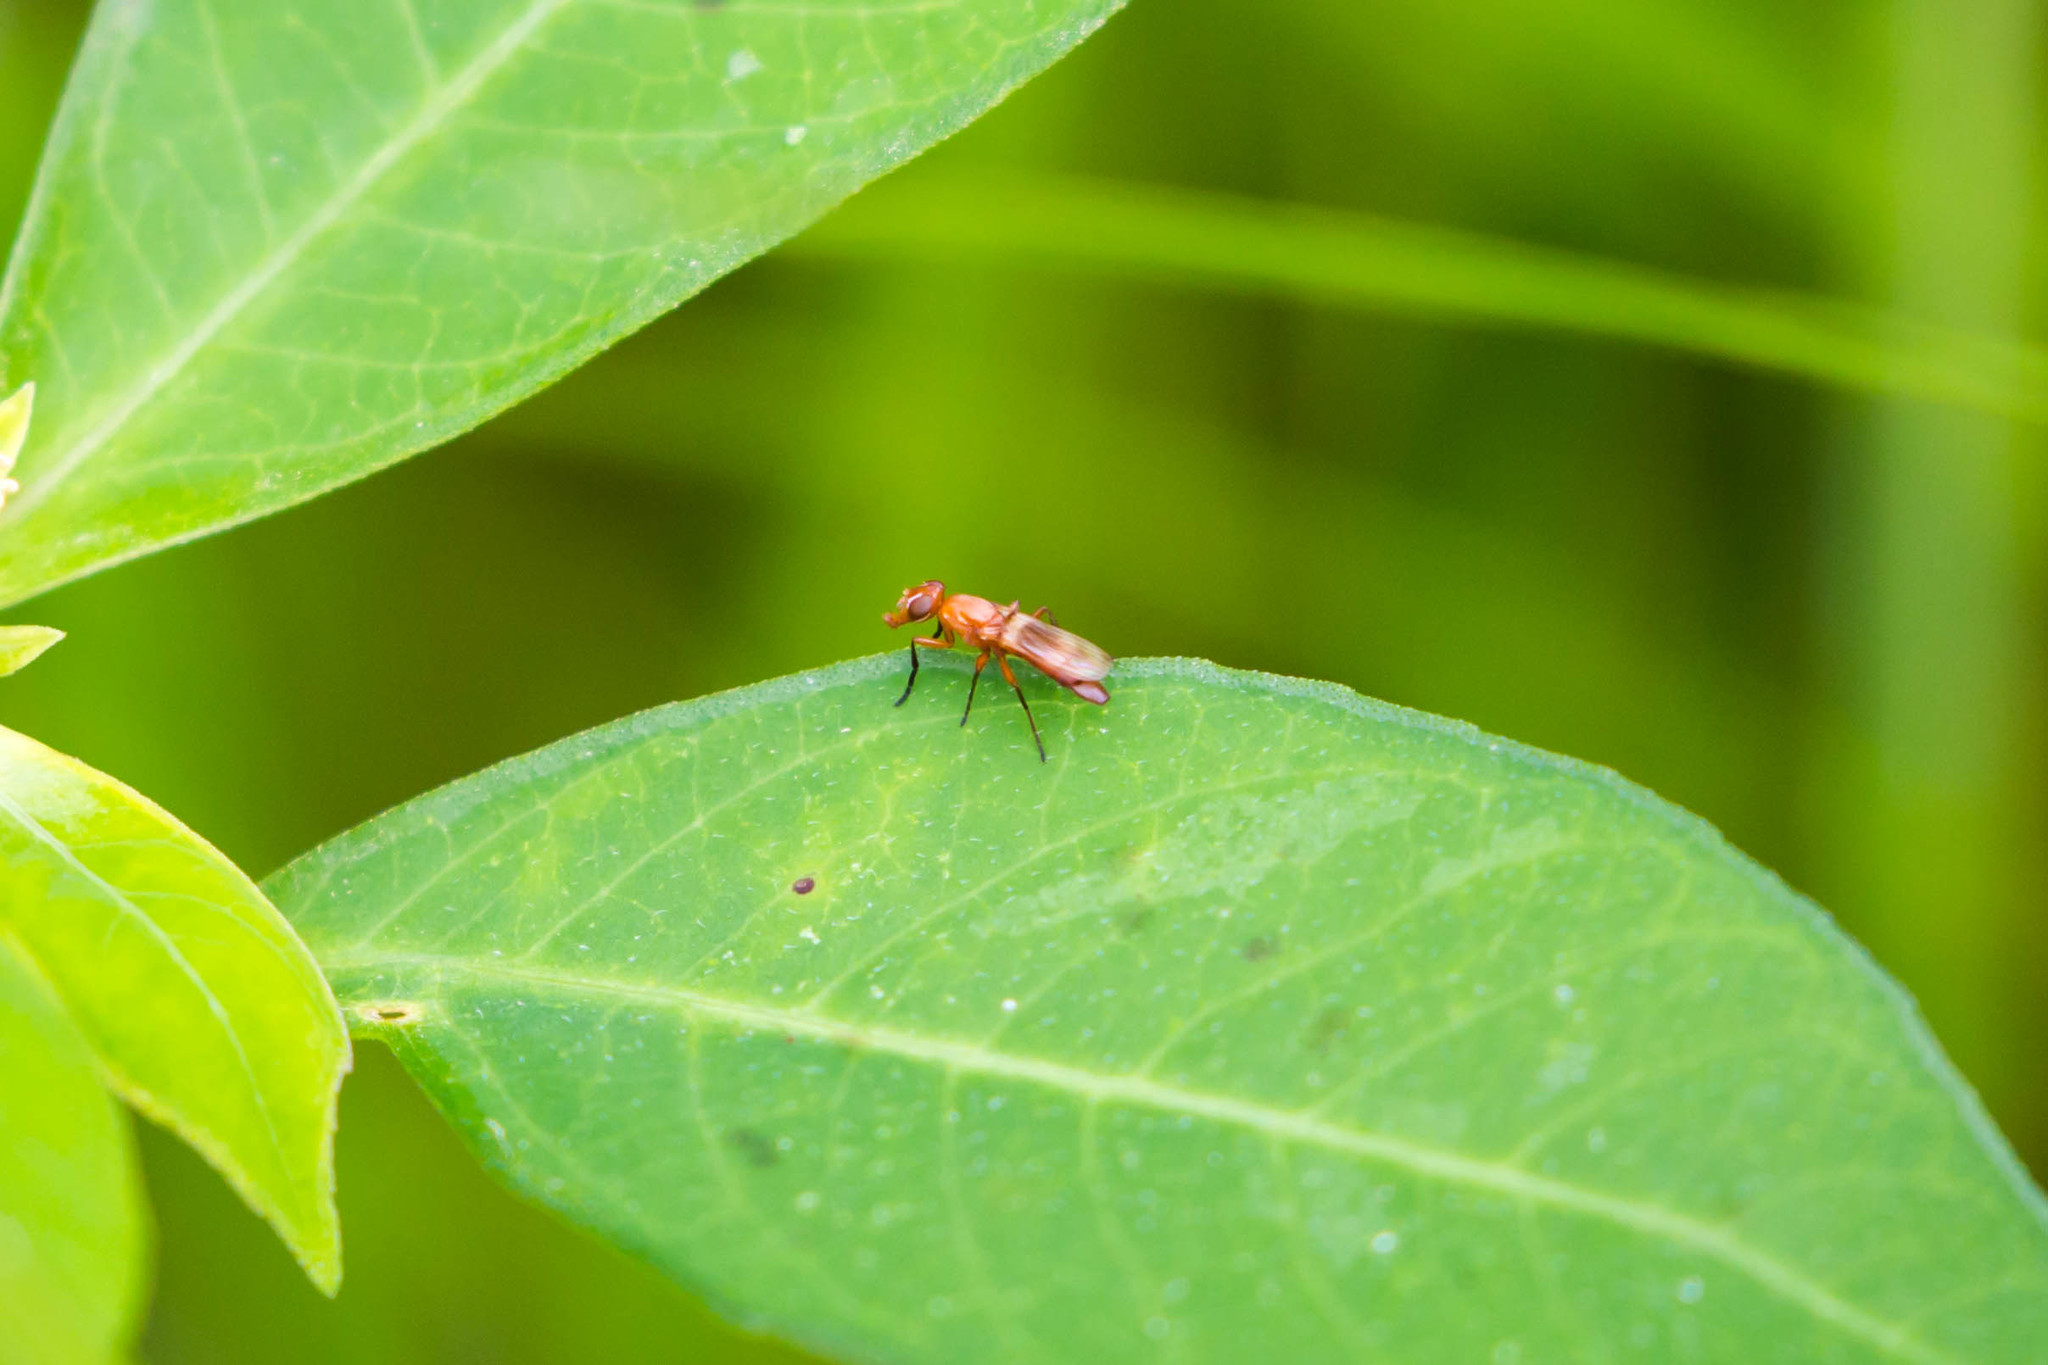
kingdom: Animalia
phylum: Arthropoda
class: Insecta
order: Diptera
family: Ulidiidae
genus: Zacompsia
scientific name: Zacompsia fulva
